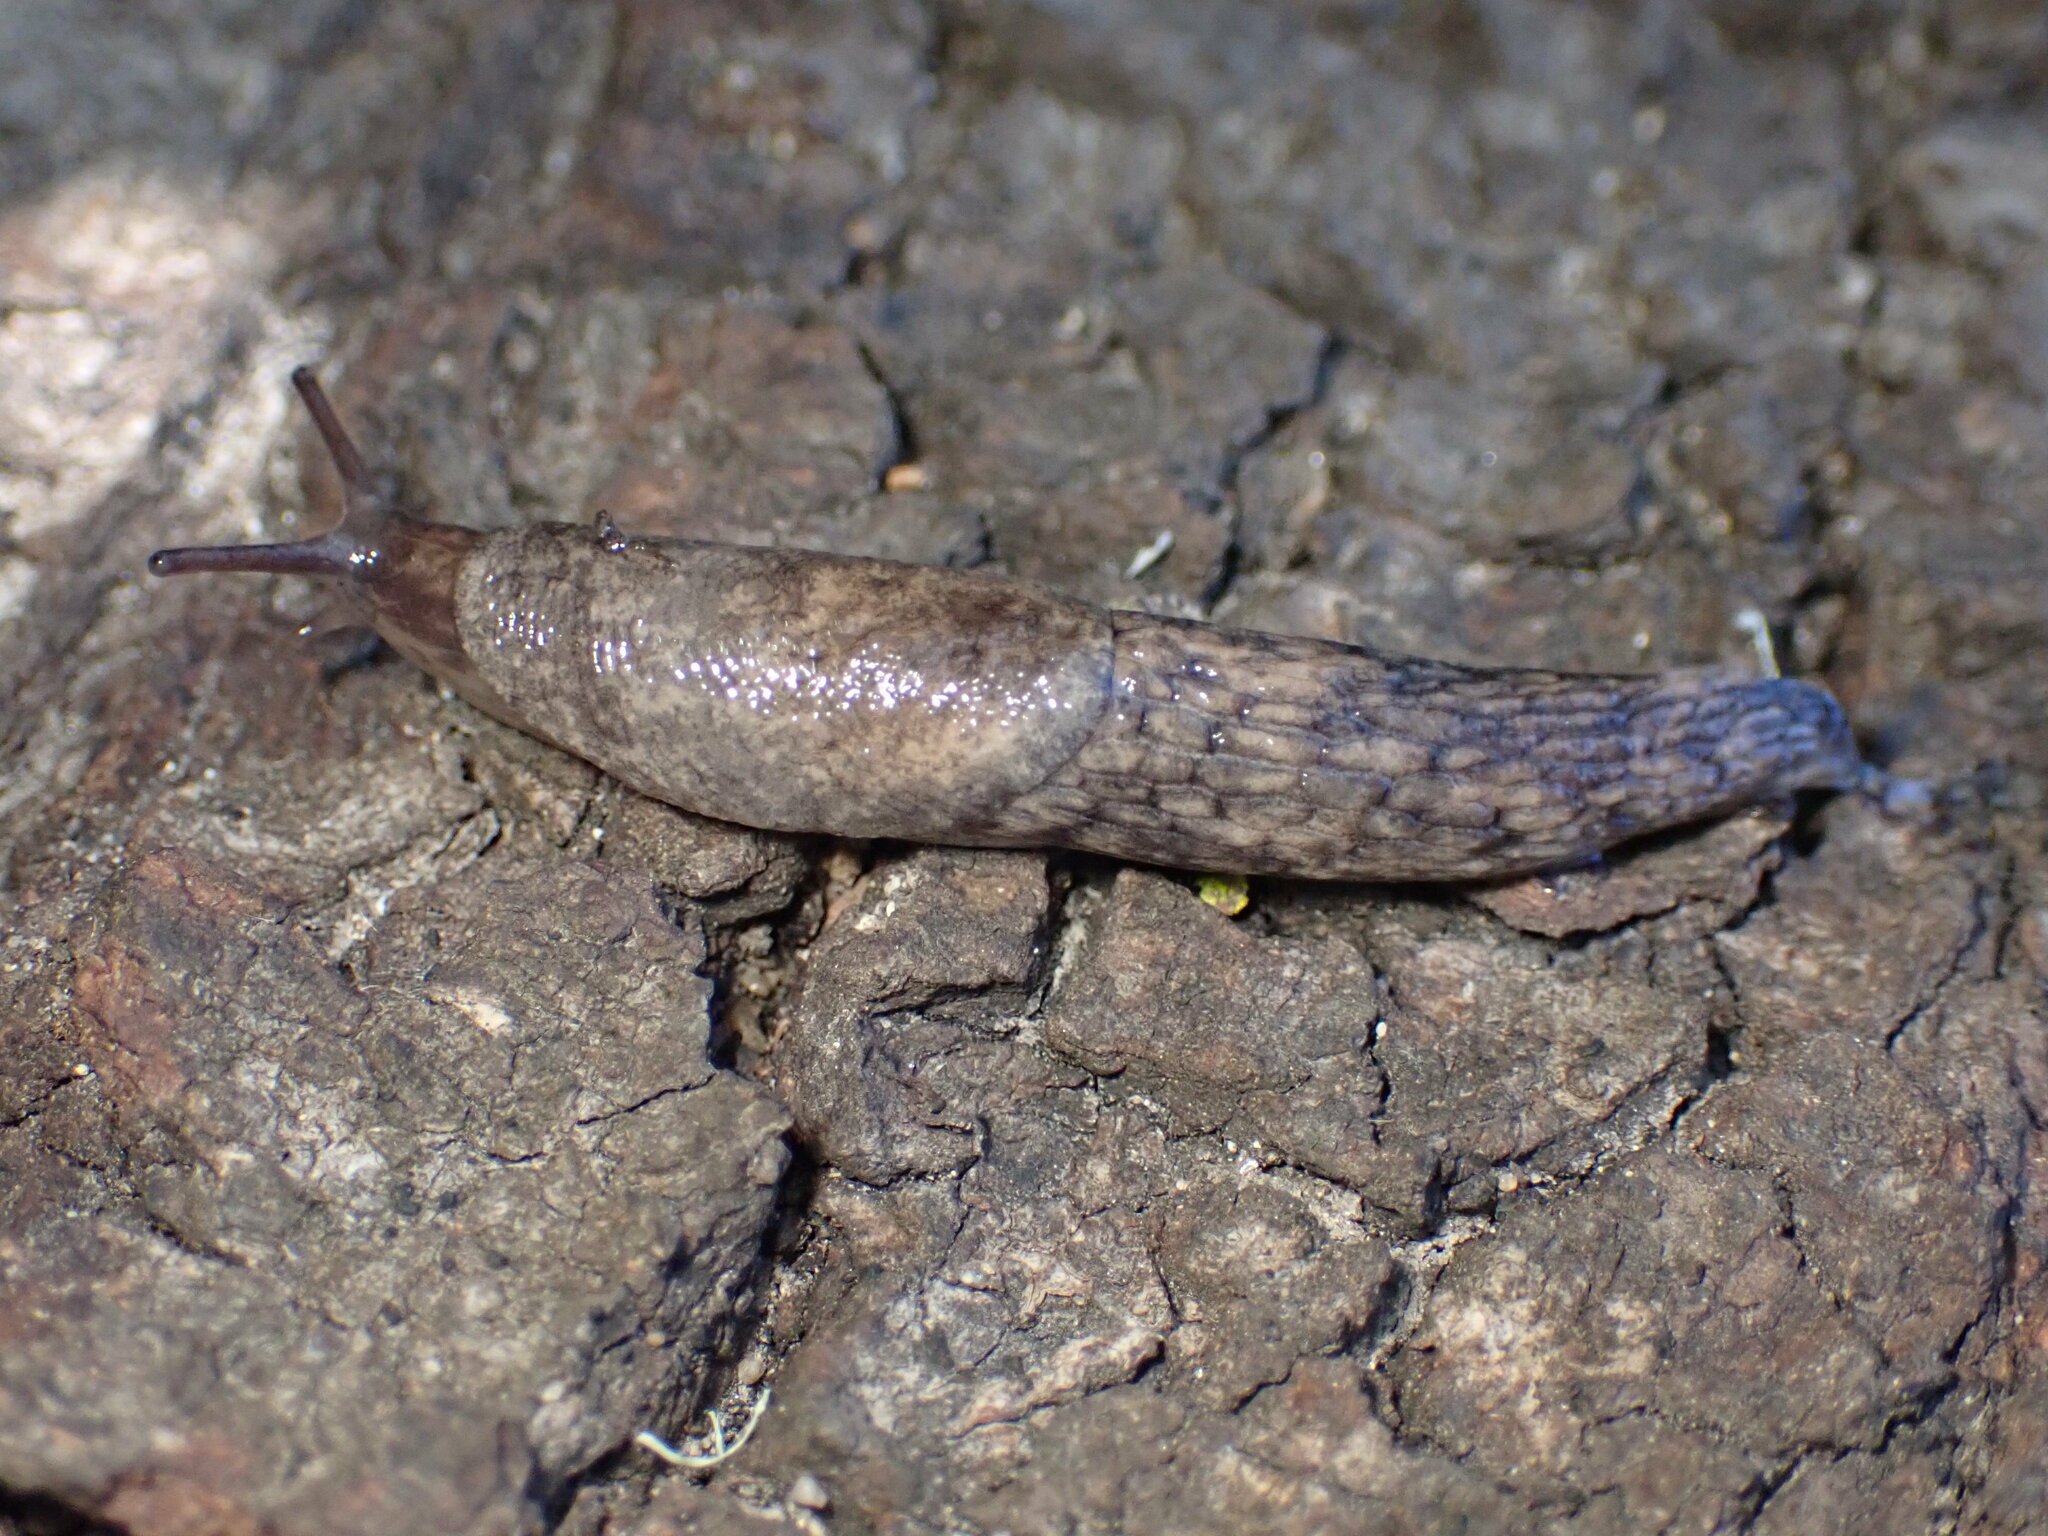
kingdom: Animalia
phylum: Mollusca
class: Gastropoda
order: Stylommatophora
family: Agriolimacidae
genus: Deroceras
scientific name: Deroceras reticulatum
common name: Gray field slug
